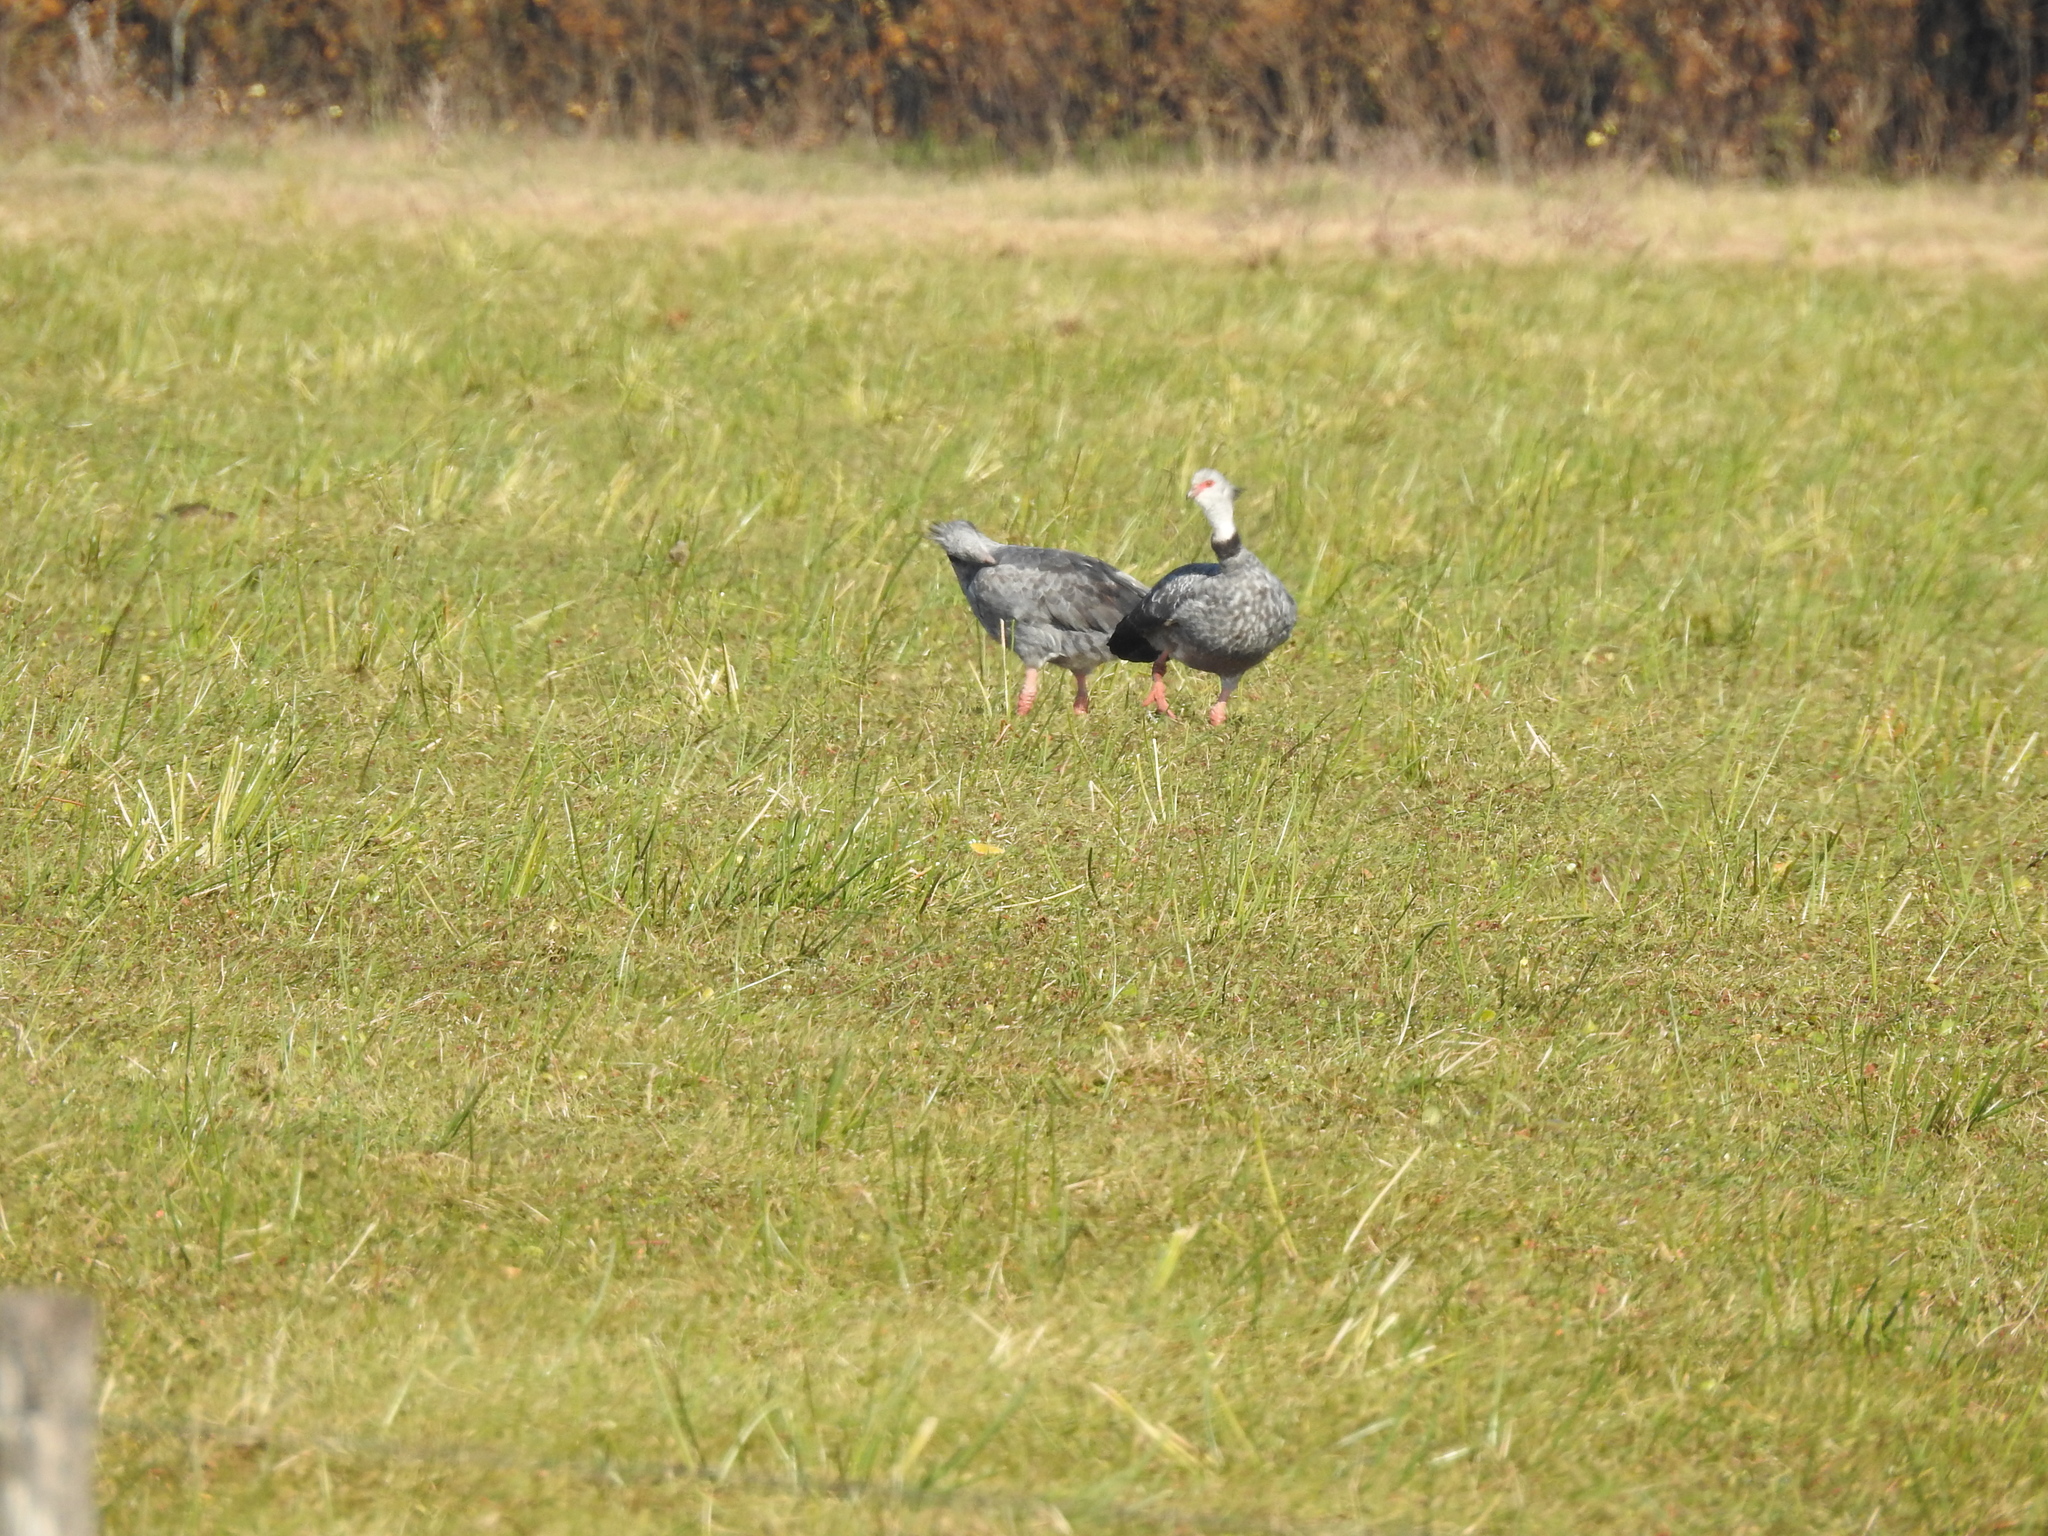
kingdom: Animalia
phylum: Chordata
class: Aves
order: Anseriformes
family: Anhimidae
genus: Chauna
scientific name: Chauna torquata
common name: Southern screamer
